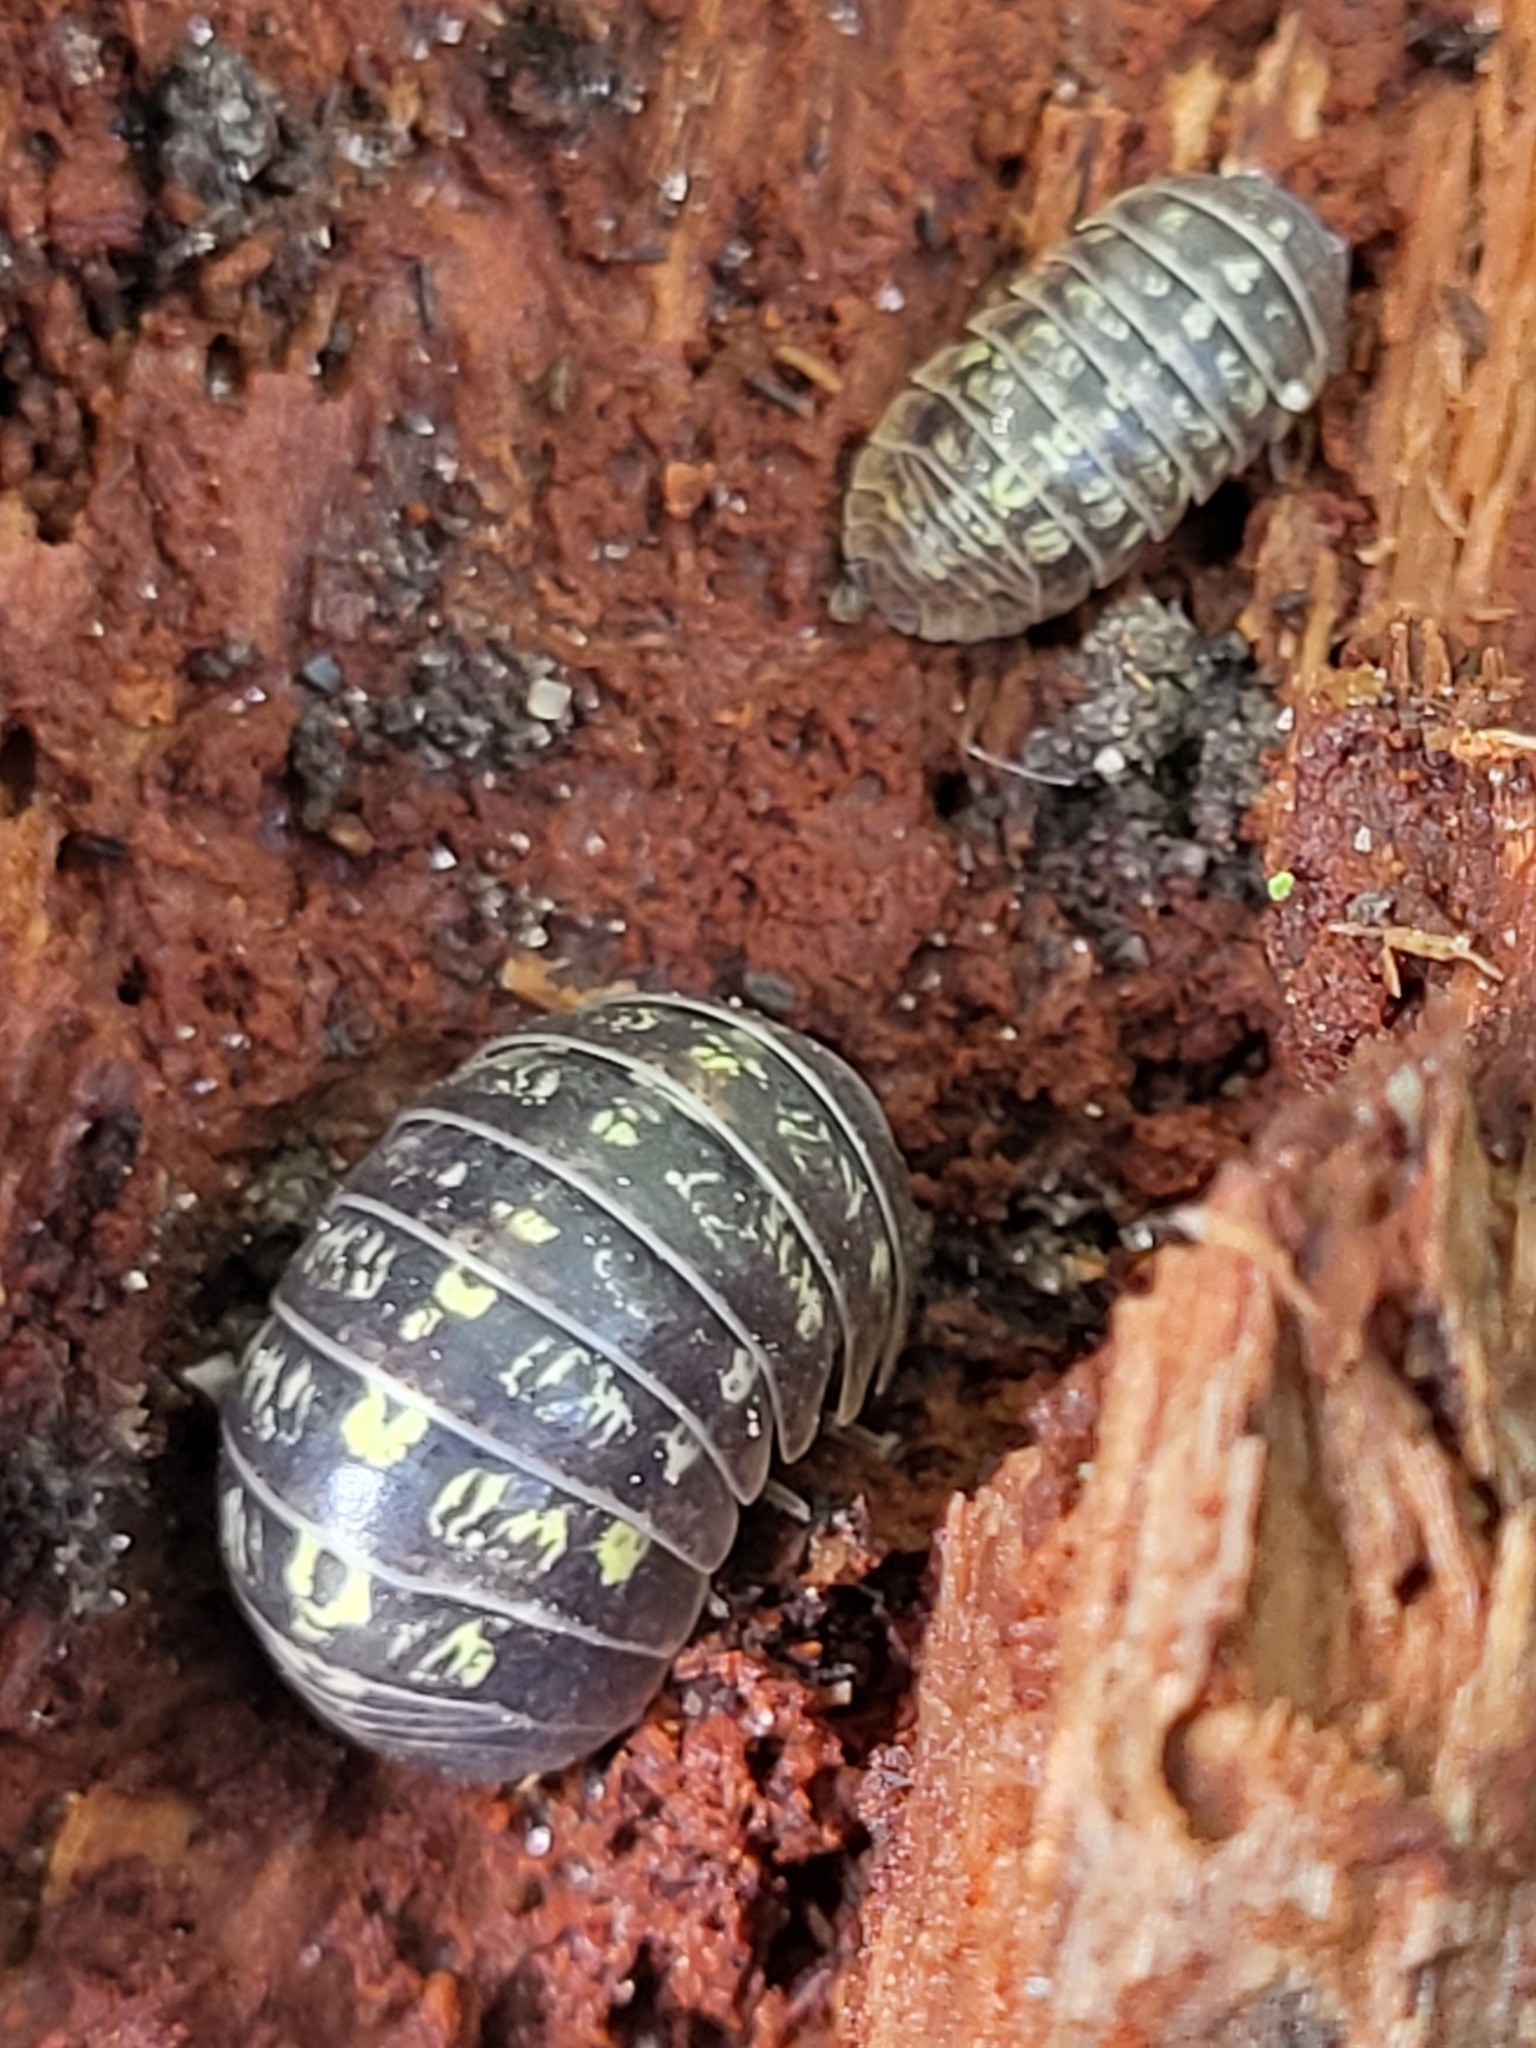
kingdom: Animalia
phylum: Arthropoda
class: Malacostraca
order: Isopoda
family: Armadillidiidae
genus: Armadillidium
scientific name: Armadillidium vulgare
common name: Common pill woodlouse
